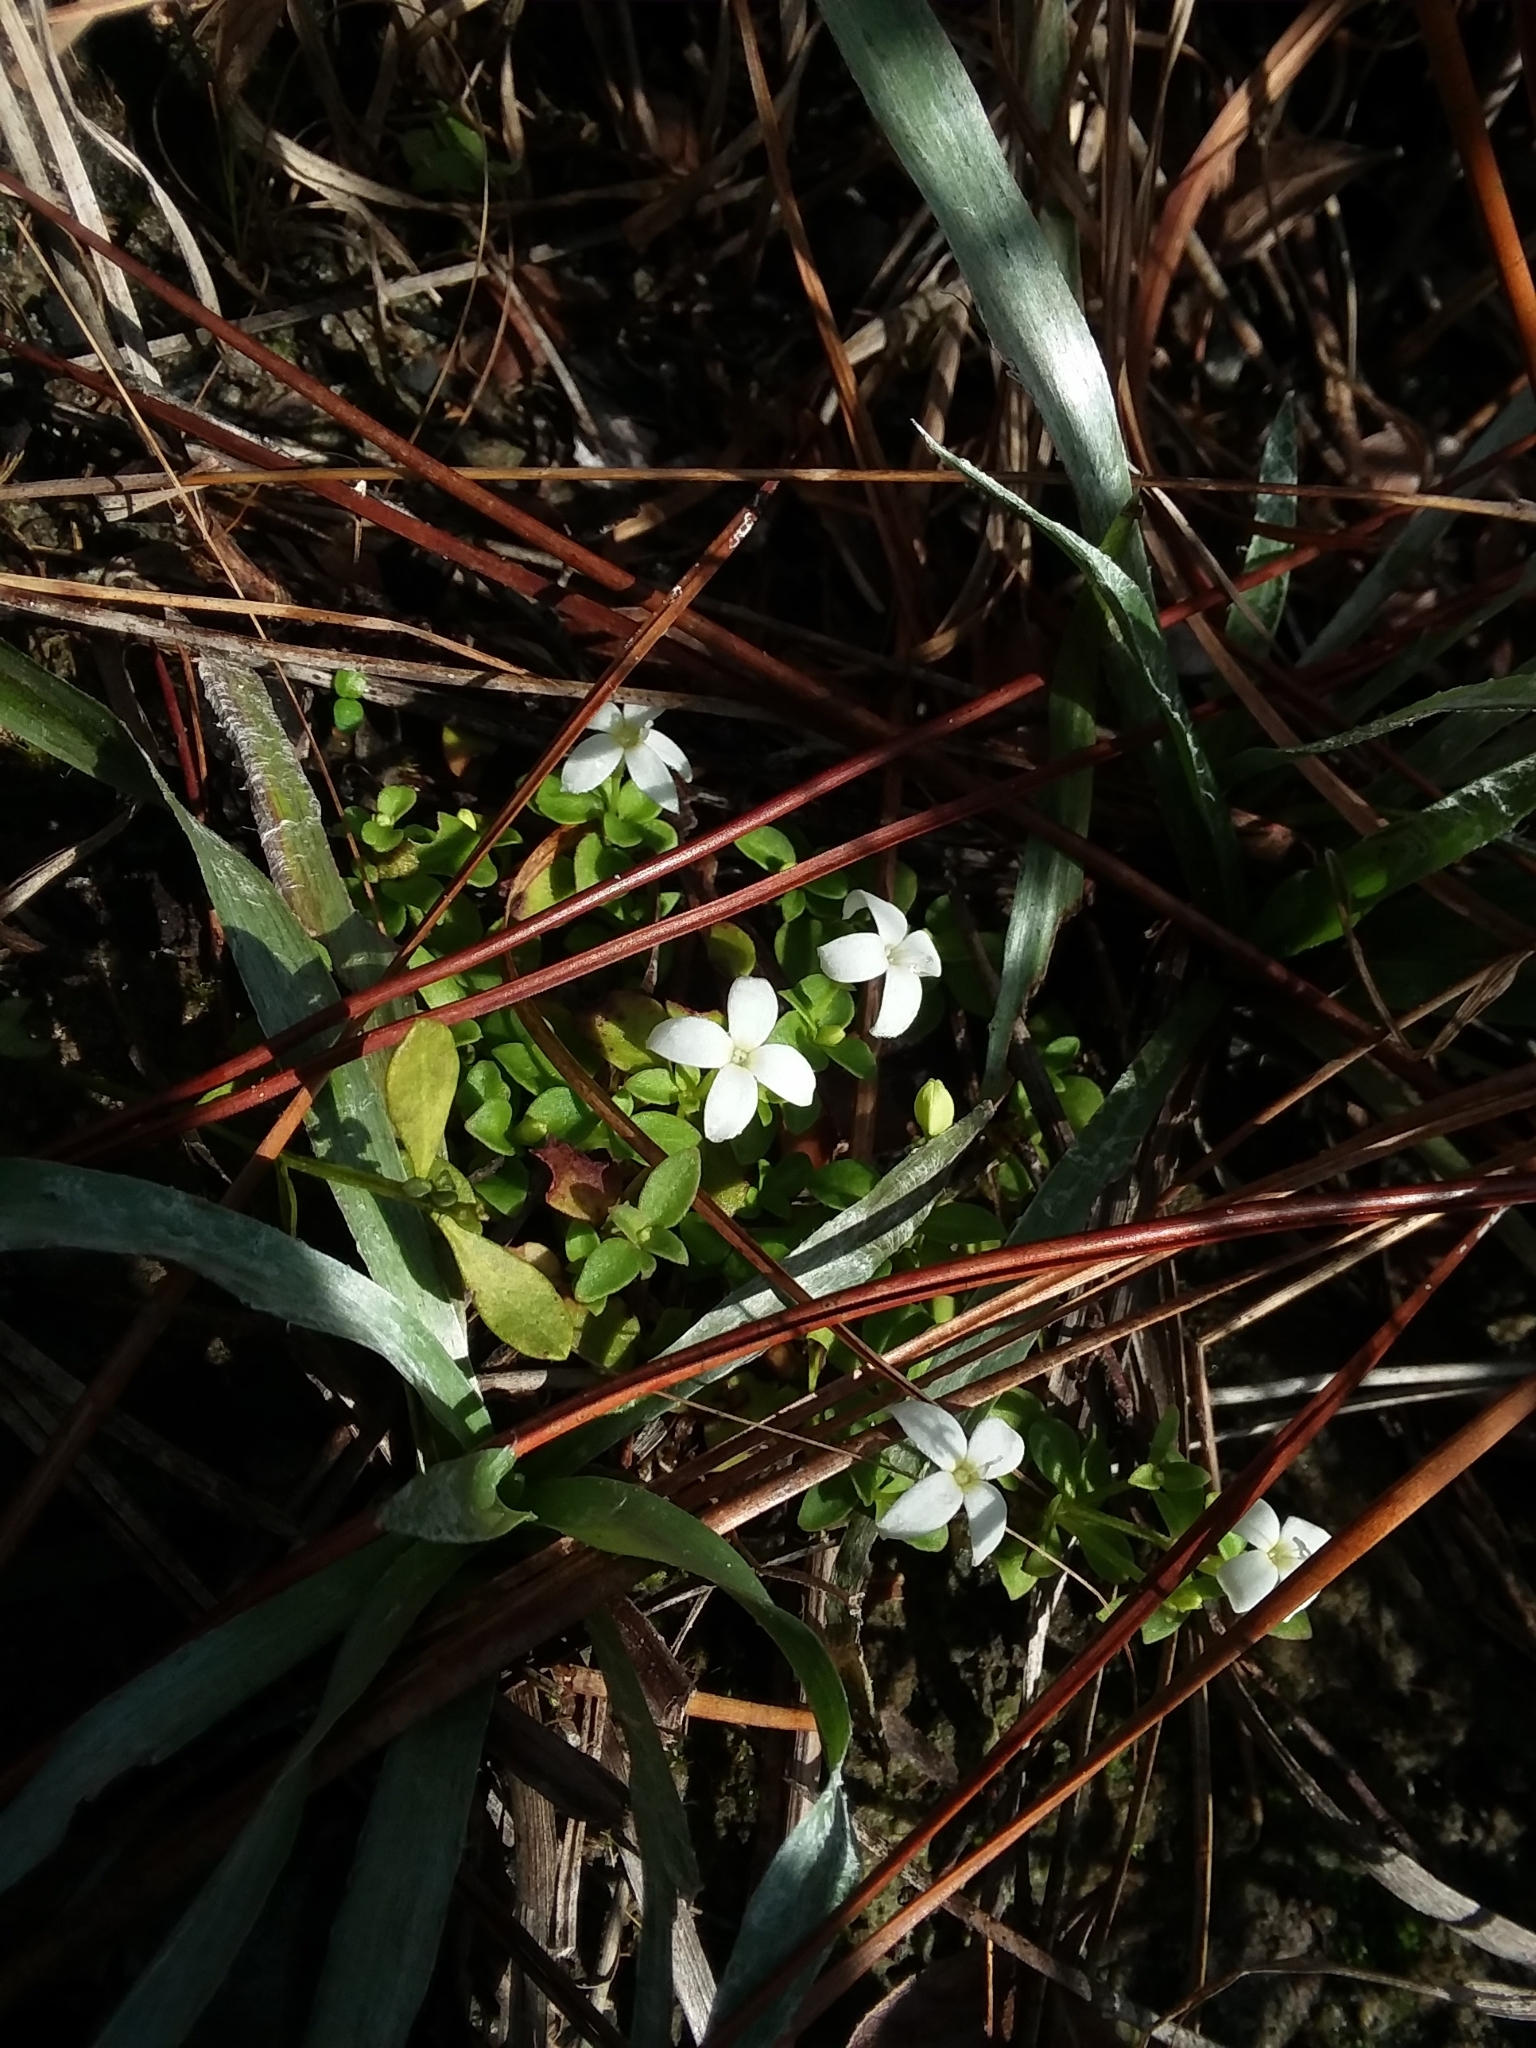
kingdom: Plantae
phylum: Tracheophyta
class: Magnoliopsida
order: Gentianales
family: Rubiaceae
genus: Houstonia
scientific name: Houstonia procumbens
